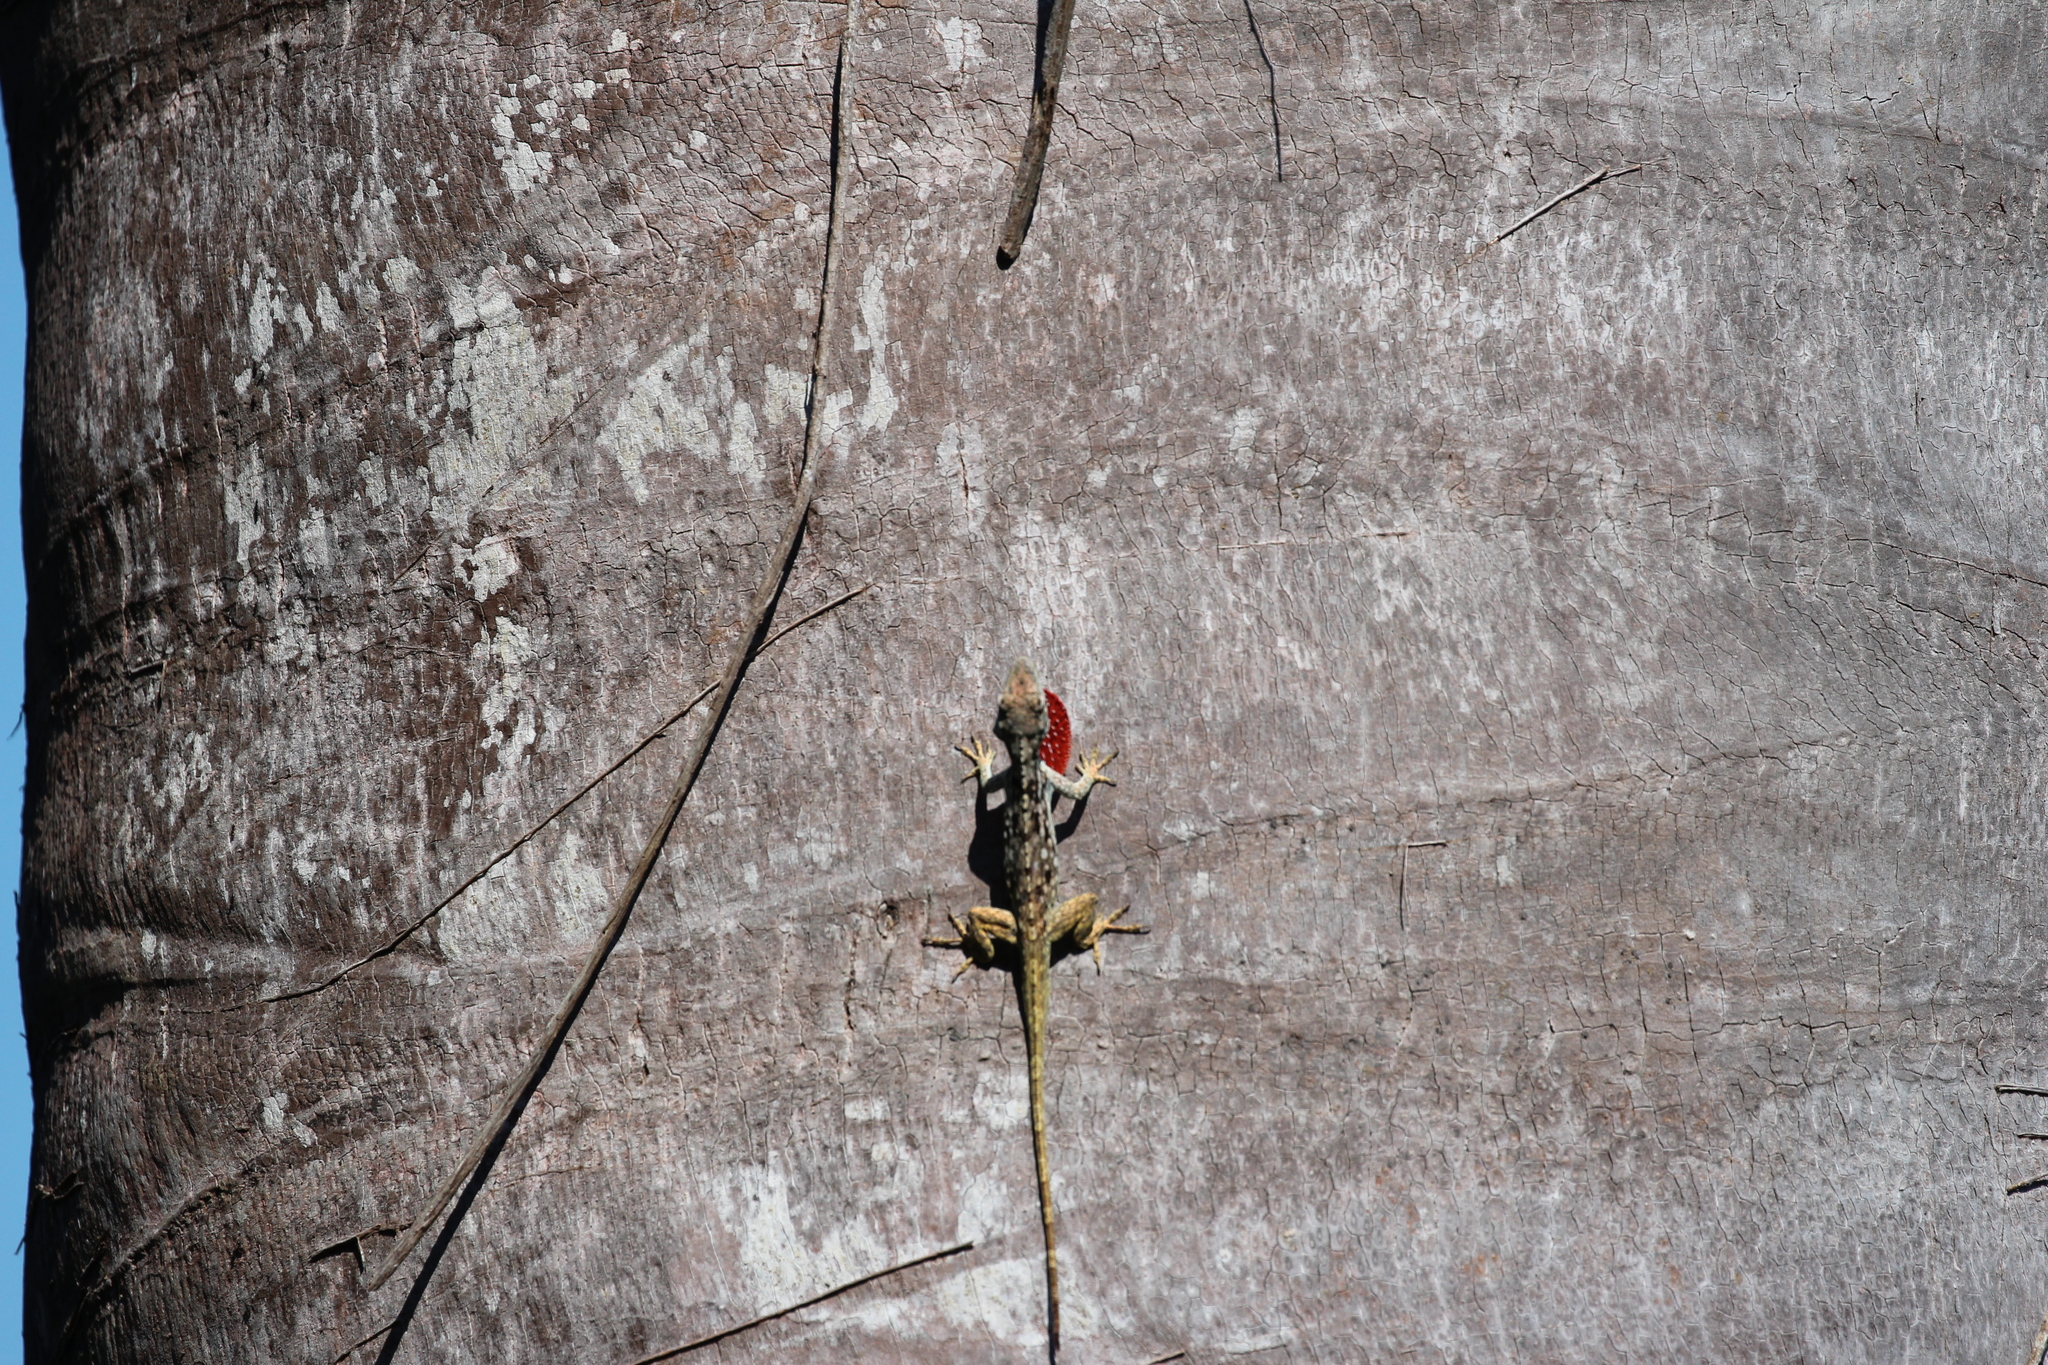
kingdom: Animalia
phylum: Chordata
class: Squamata
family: Dactyloidae
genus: Anolis
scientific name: Anolis charlesmyersi
